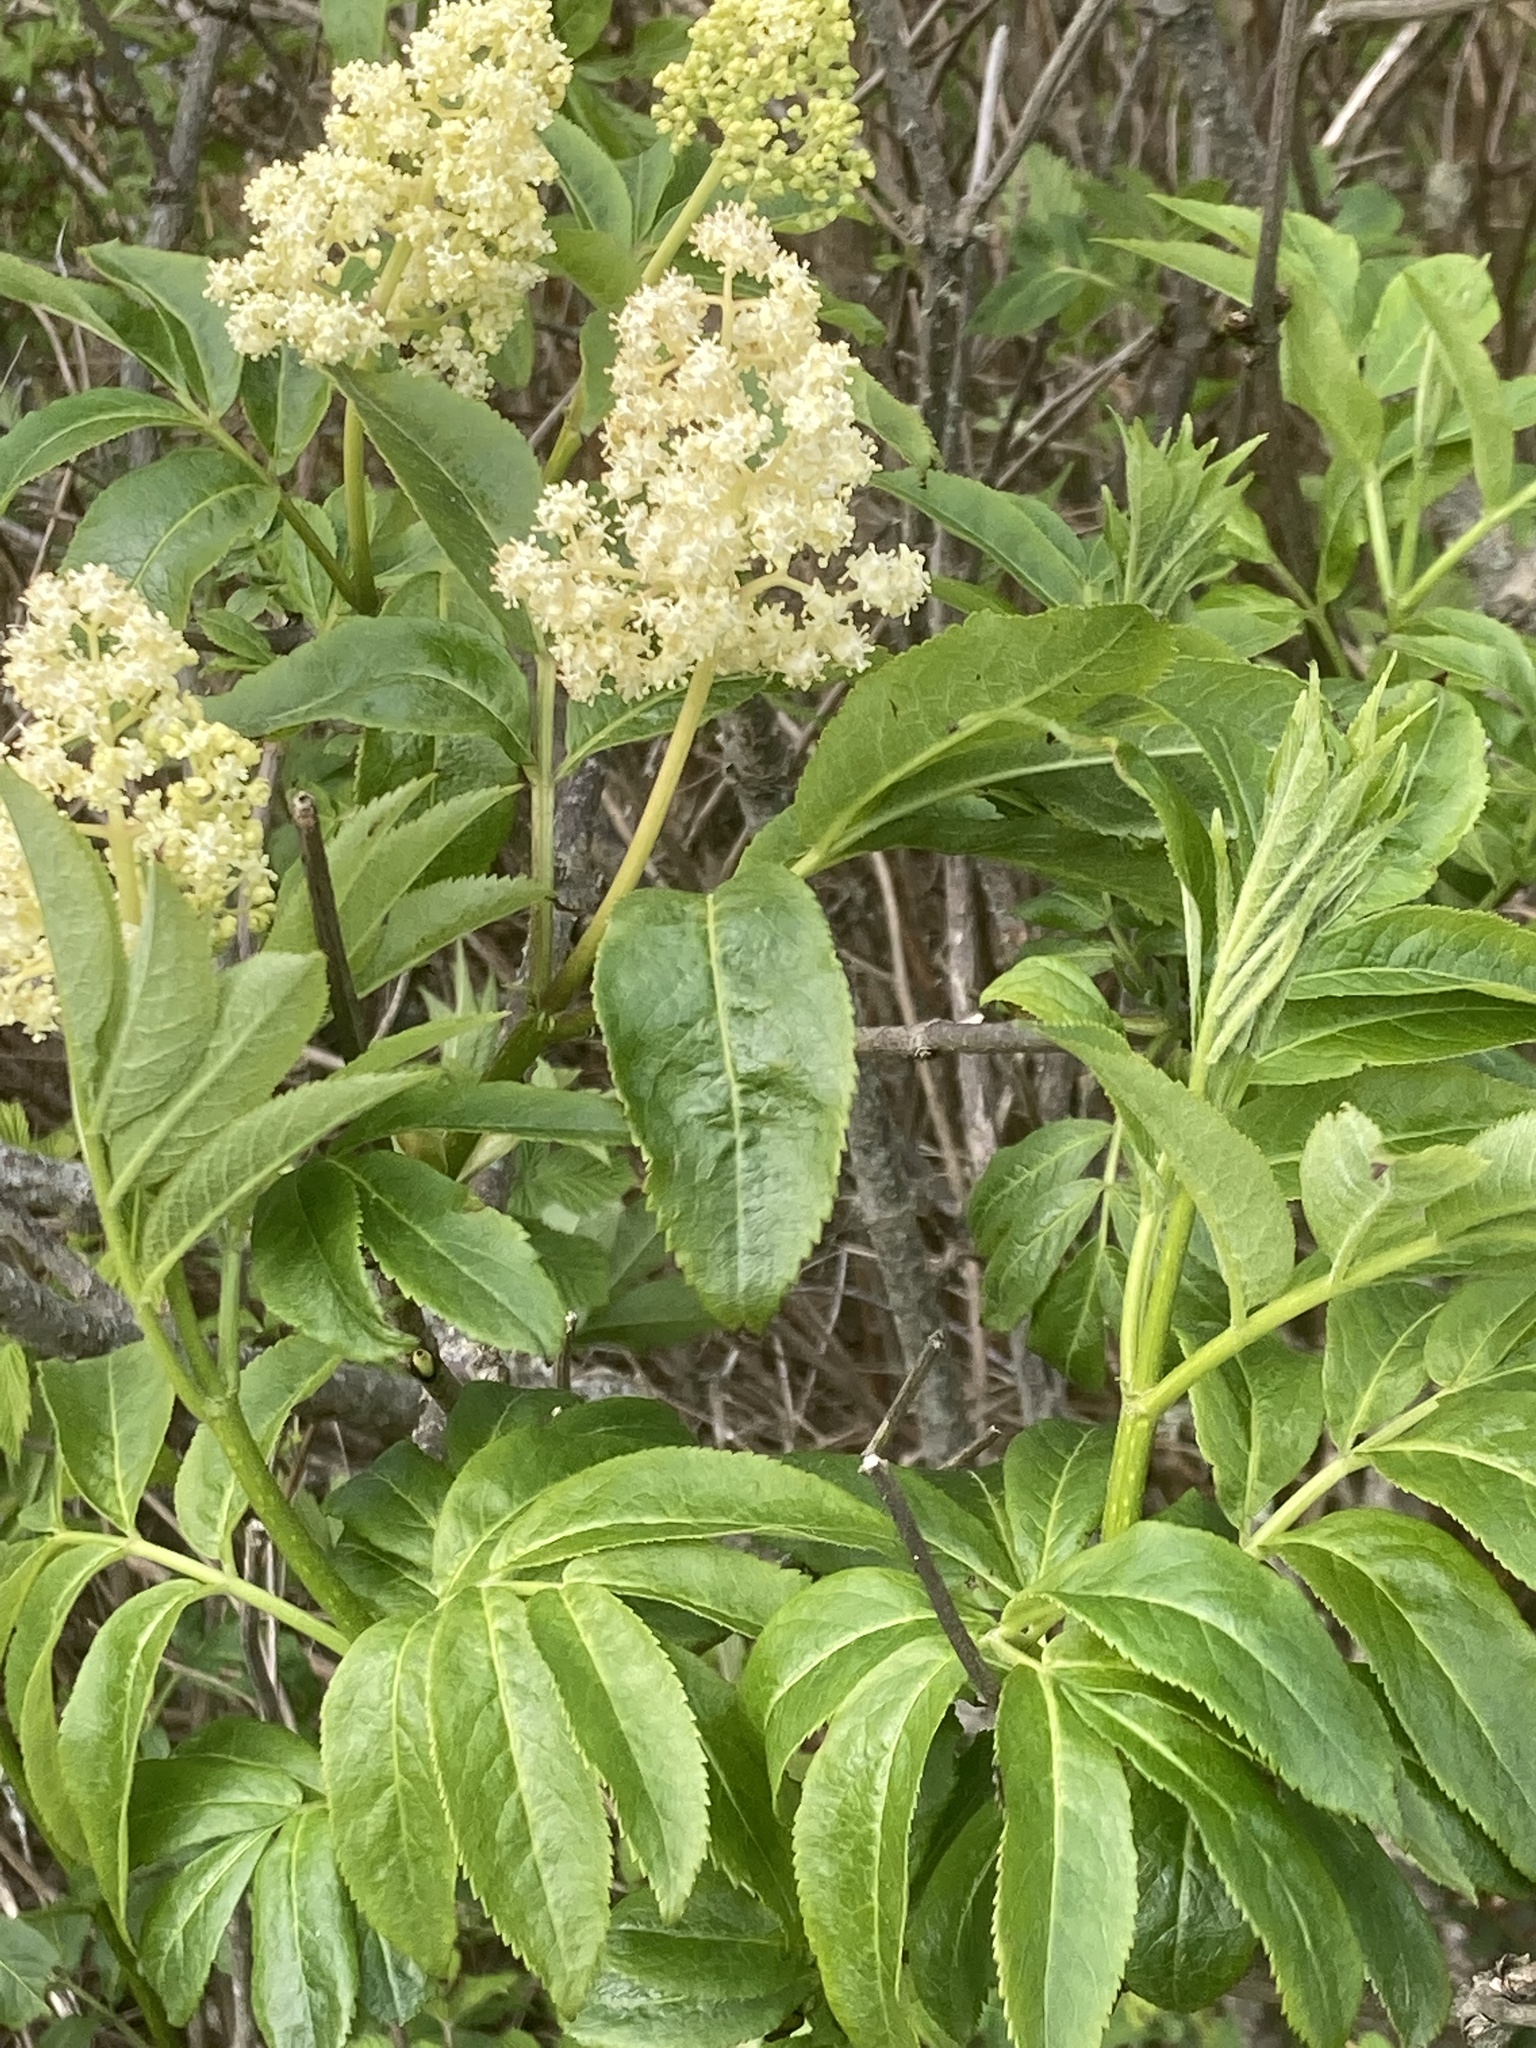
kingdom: Plantae
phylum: Tracheophyta
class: Magnoliopsida
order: Dipsacales
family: Viburnaceae
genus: Sambucus
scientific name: Sambucus racemosa
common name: Red-berried elder
